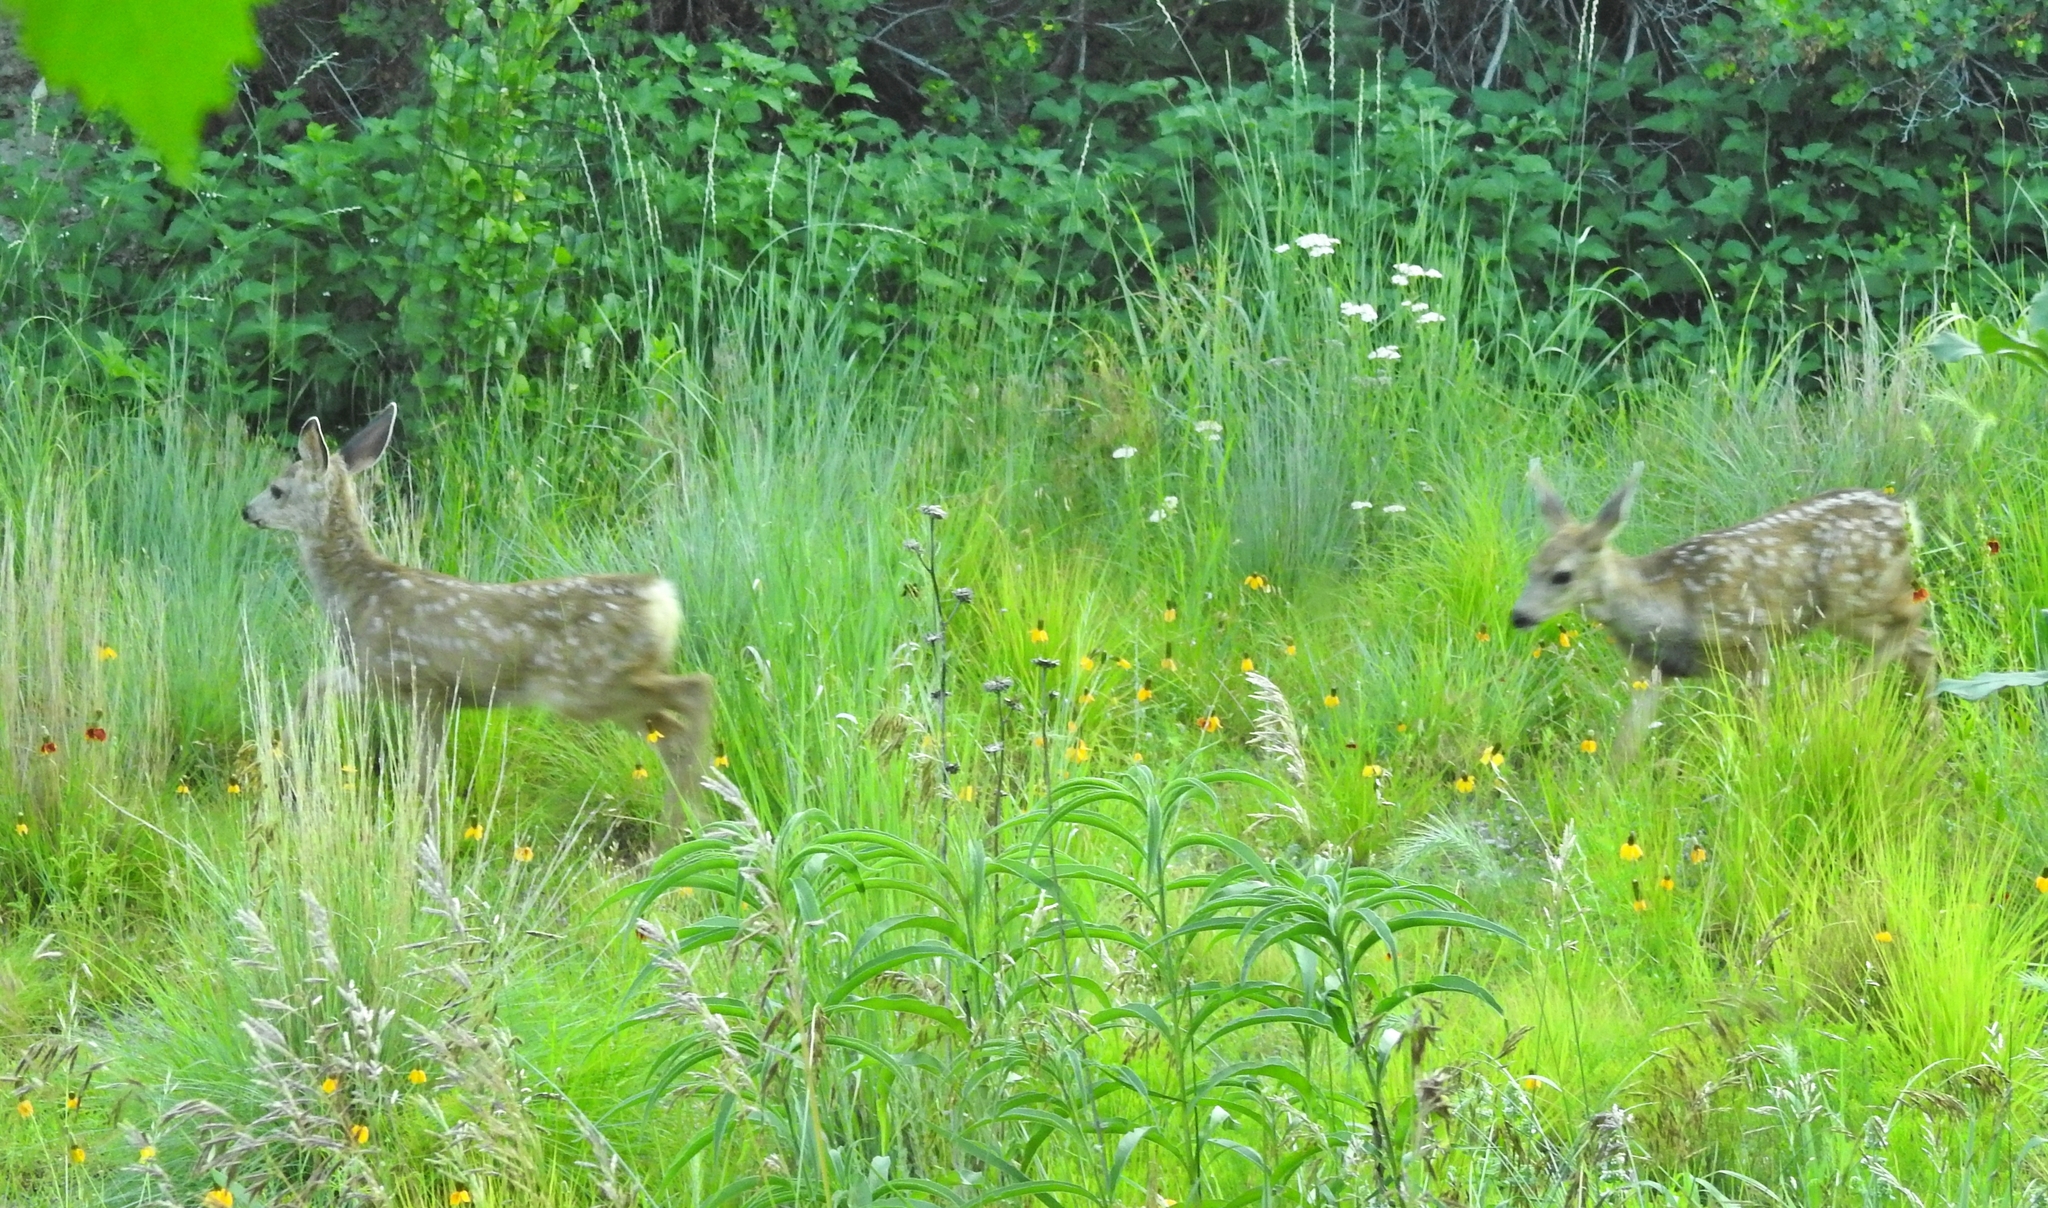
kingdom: Animalia
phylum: Chordata
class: Mammalia
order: Artiodactyla
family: Cervidae
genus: Odocoileus
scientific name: Odocoileus hemionus
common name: Mule deer
